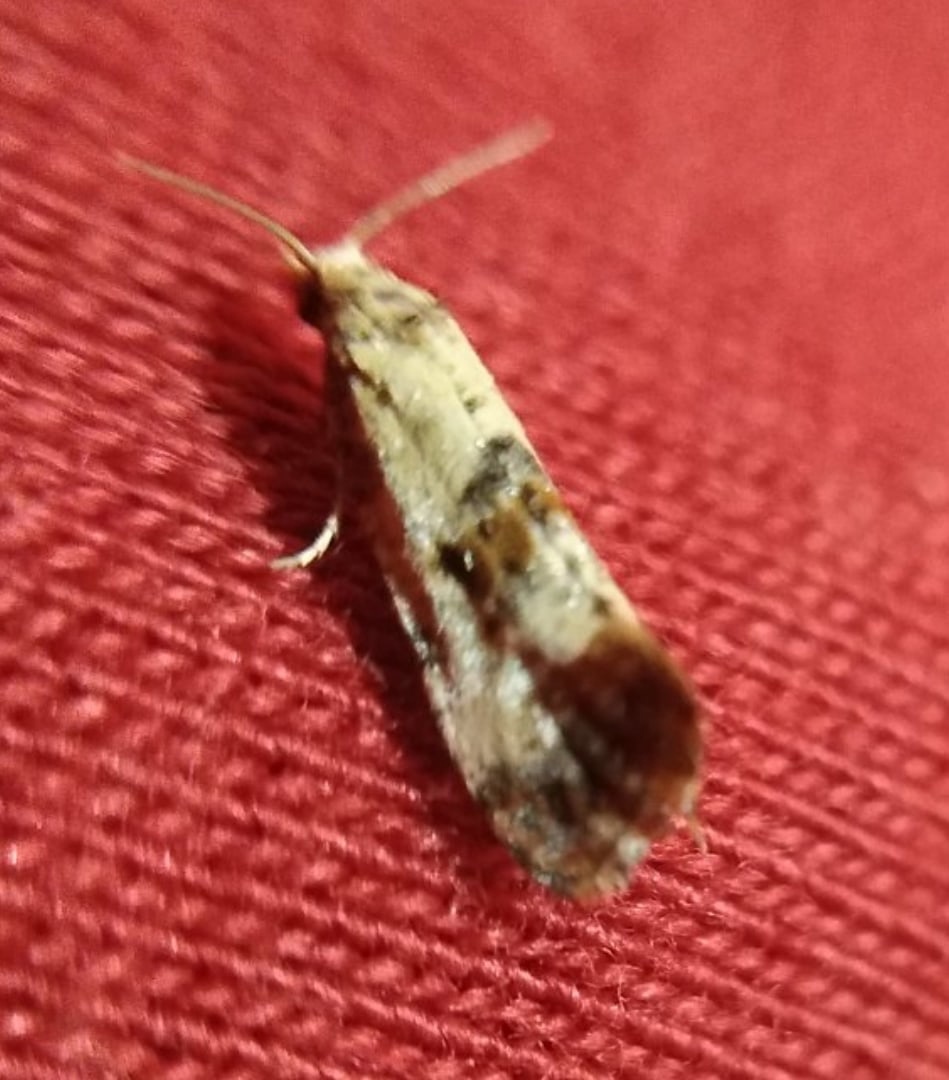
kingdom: Animalia
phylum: Arthropoda
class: Insecta
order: Lepidoptera
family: Tortricidae
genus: Cochylis
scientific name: Cochylis hybridella
